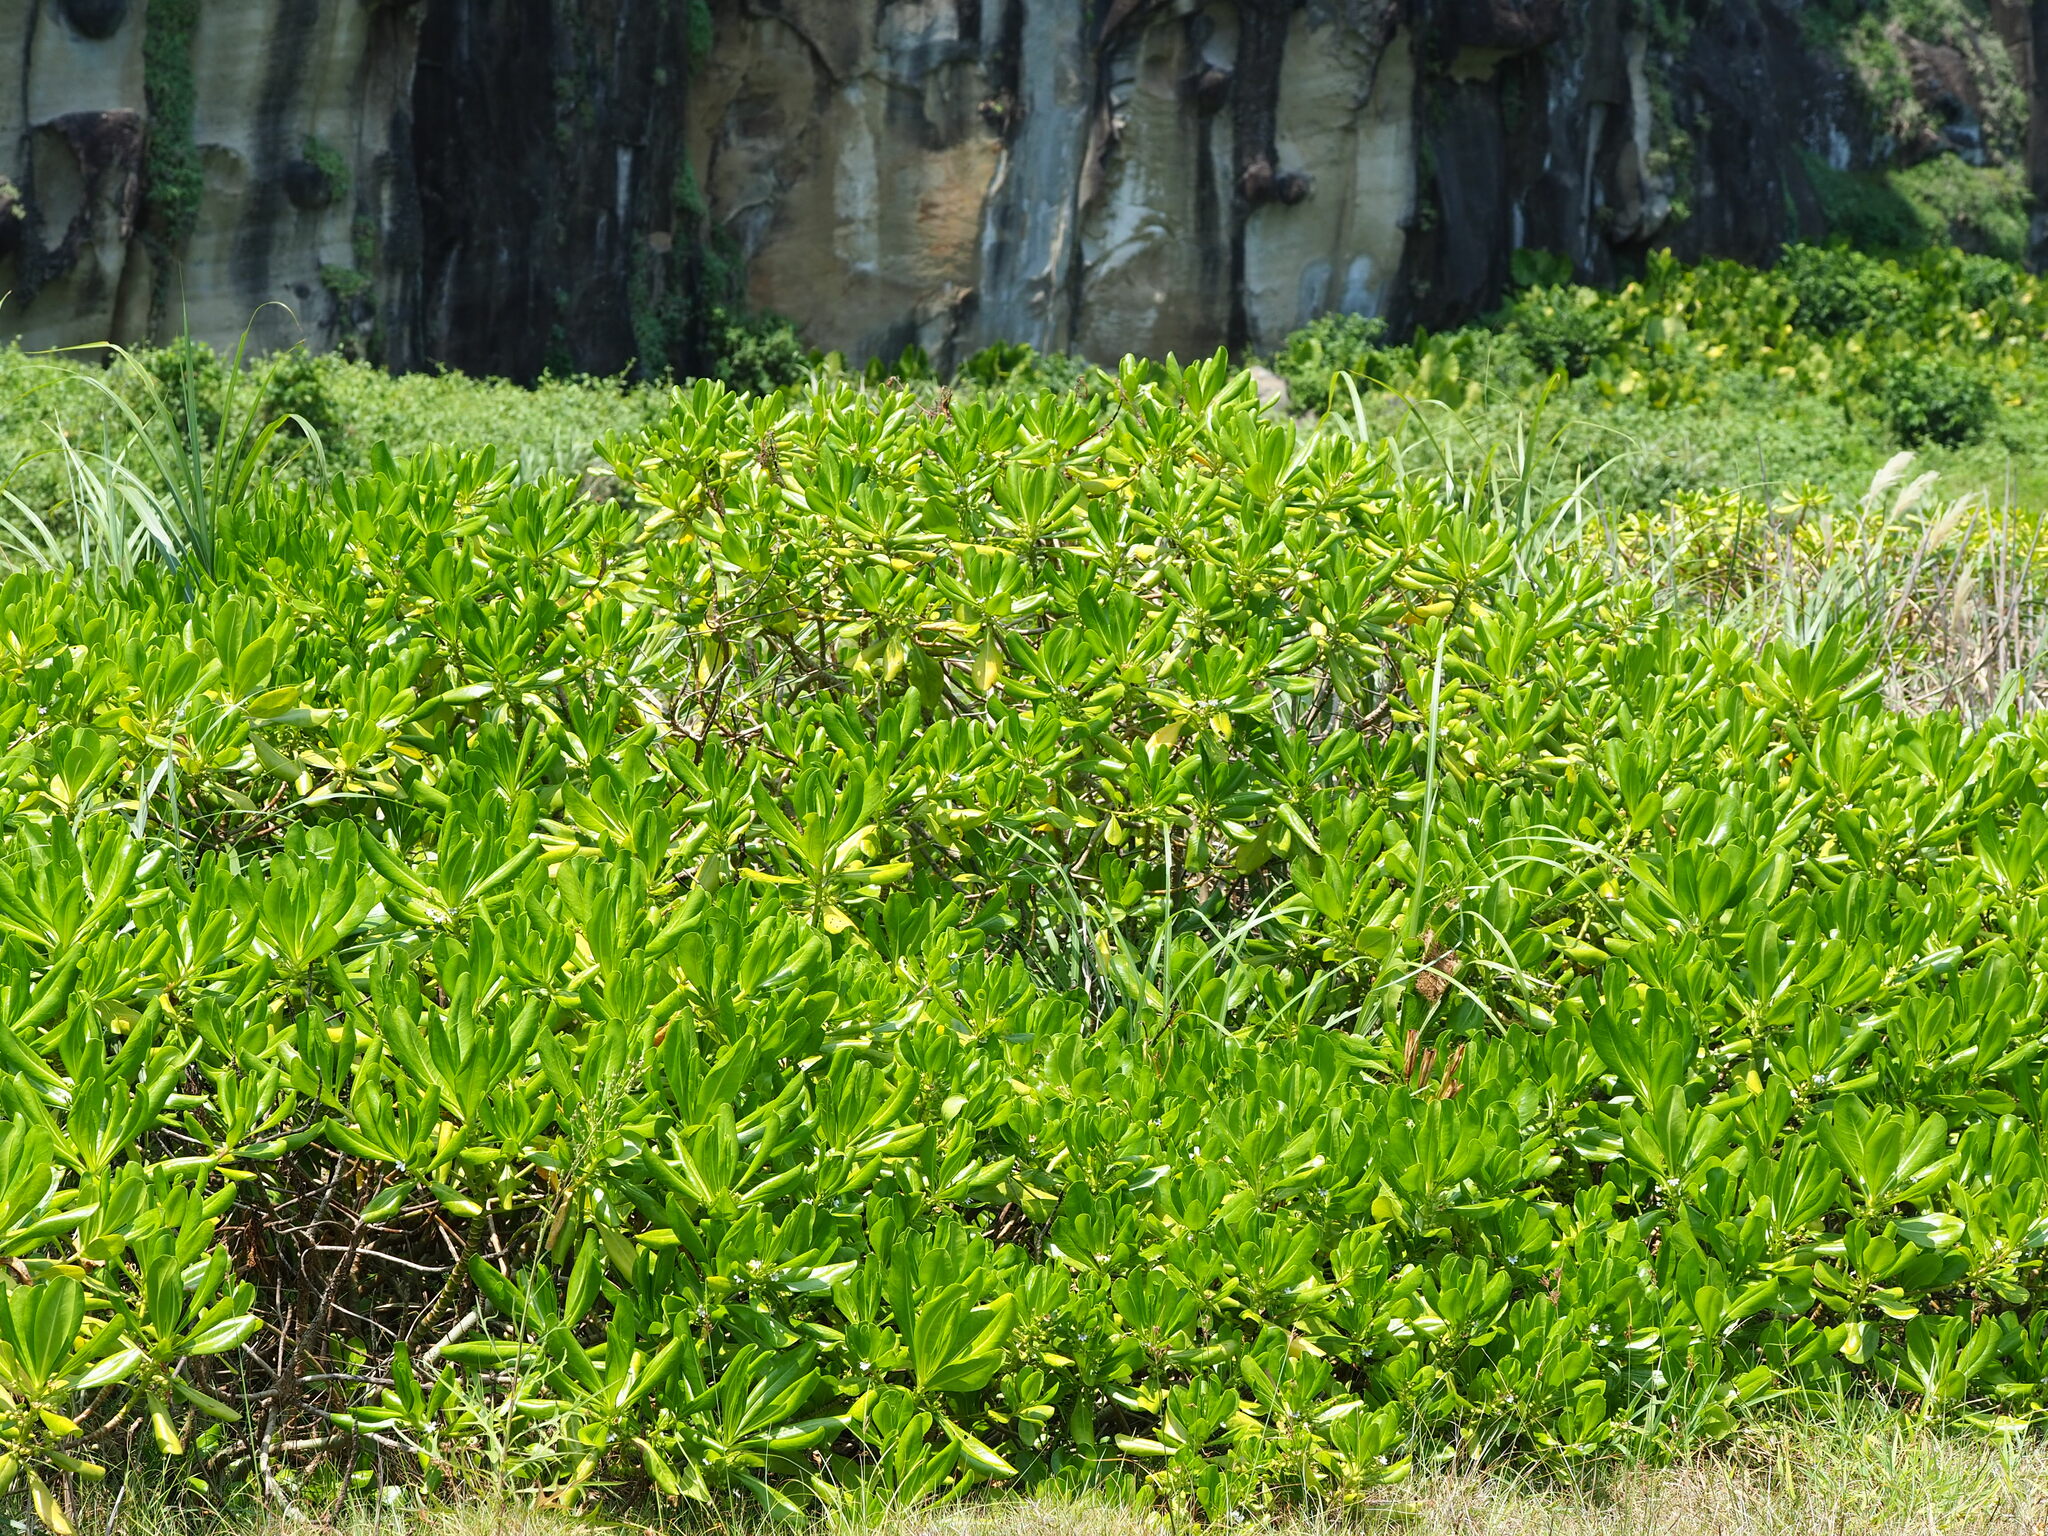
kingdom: Plantae
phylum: Tracheophyta
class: Magnoliopsida
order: Asterales
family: Goodeniaceae
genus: Scaevola
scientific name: Scaevola taccada
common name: Sea lettucetree
